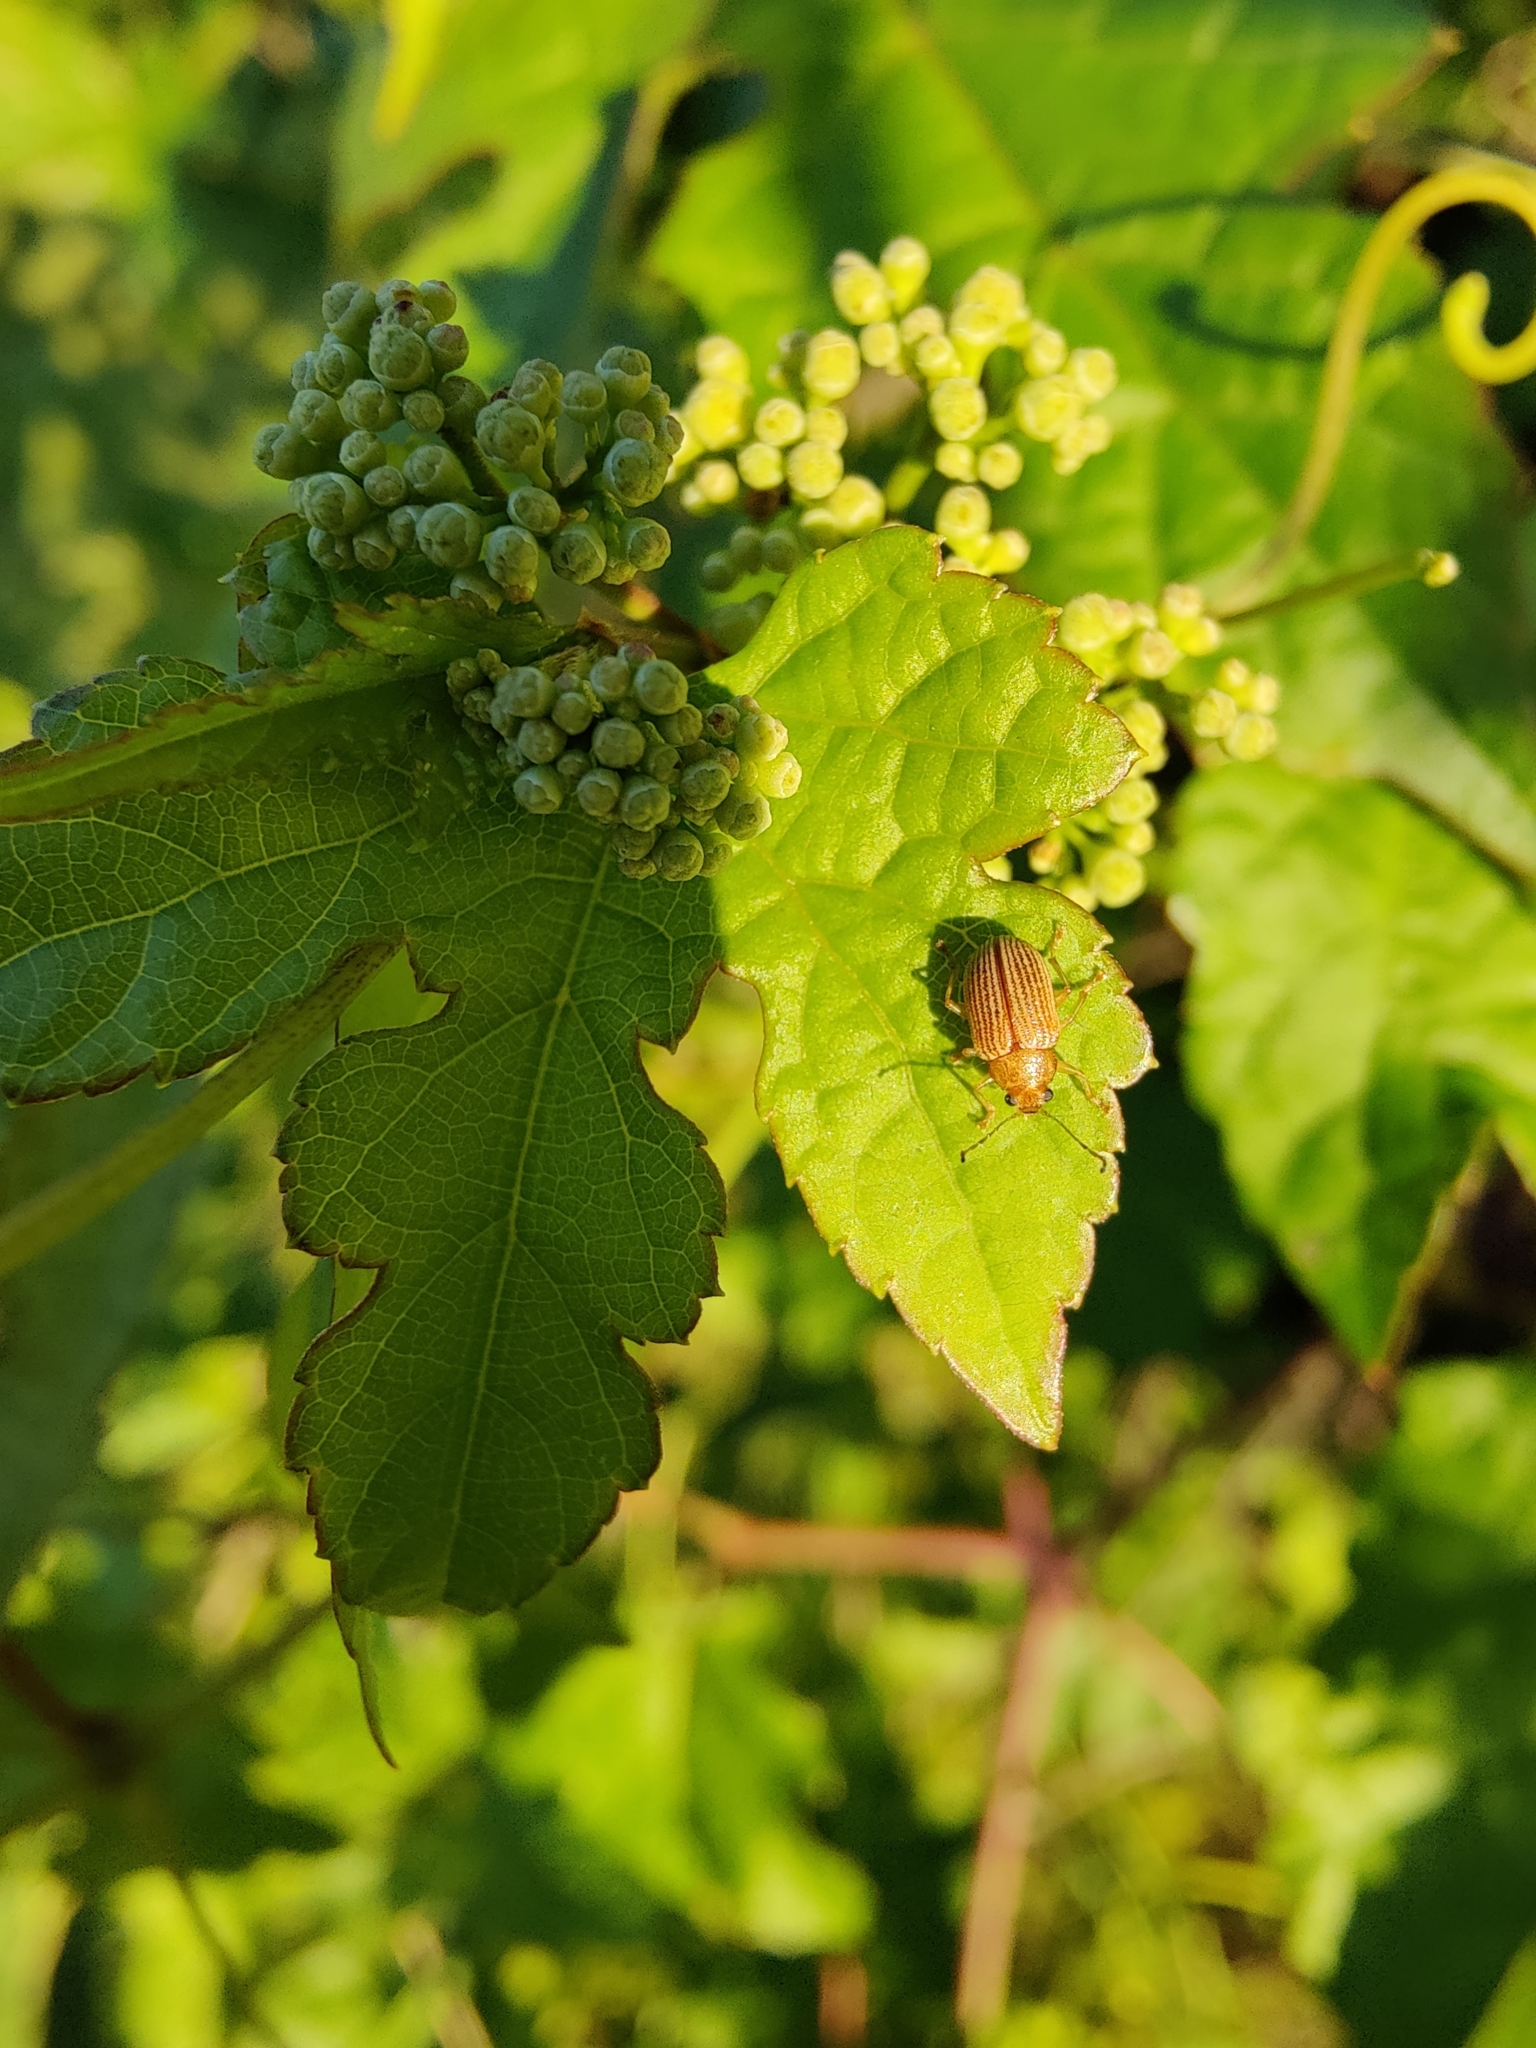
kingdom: Animalia
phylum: Arthropoda
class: Insecta
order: Coleoptera
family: Chrysomelidae
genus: Colaspis
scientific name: Colaspis brunnea
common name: Grape colaspis
